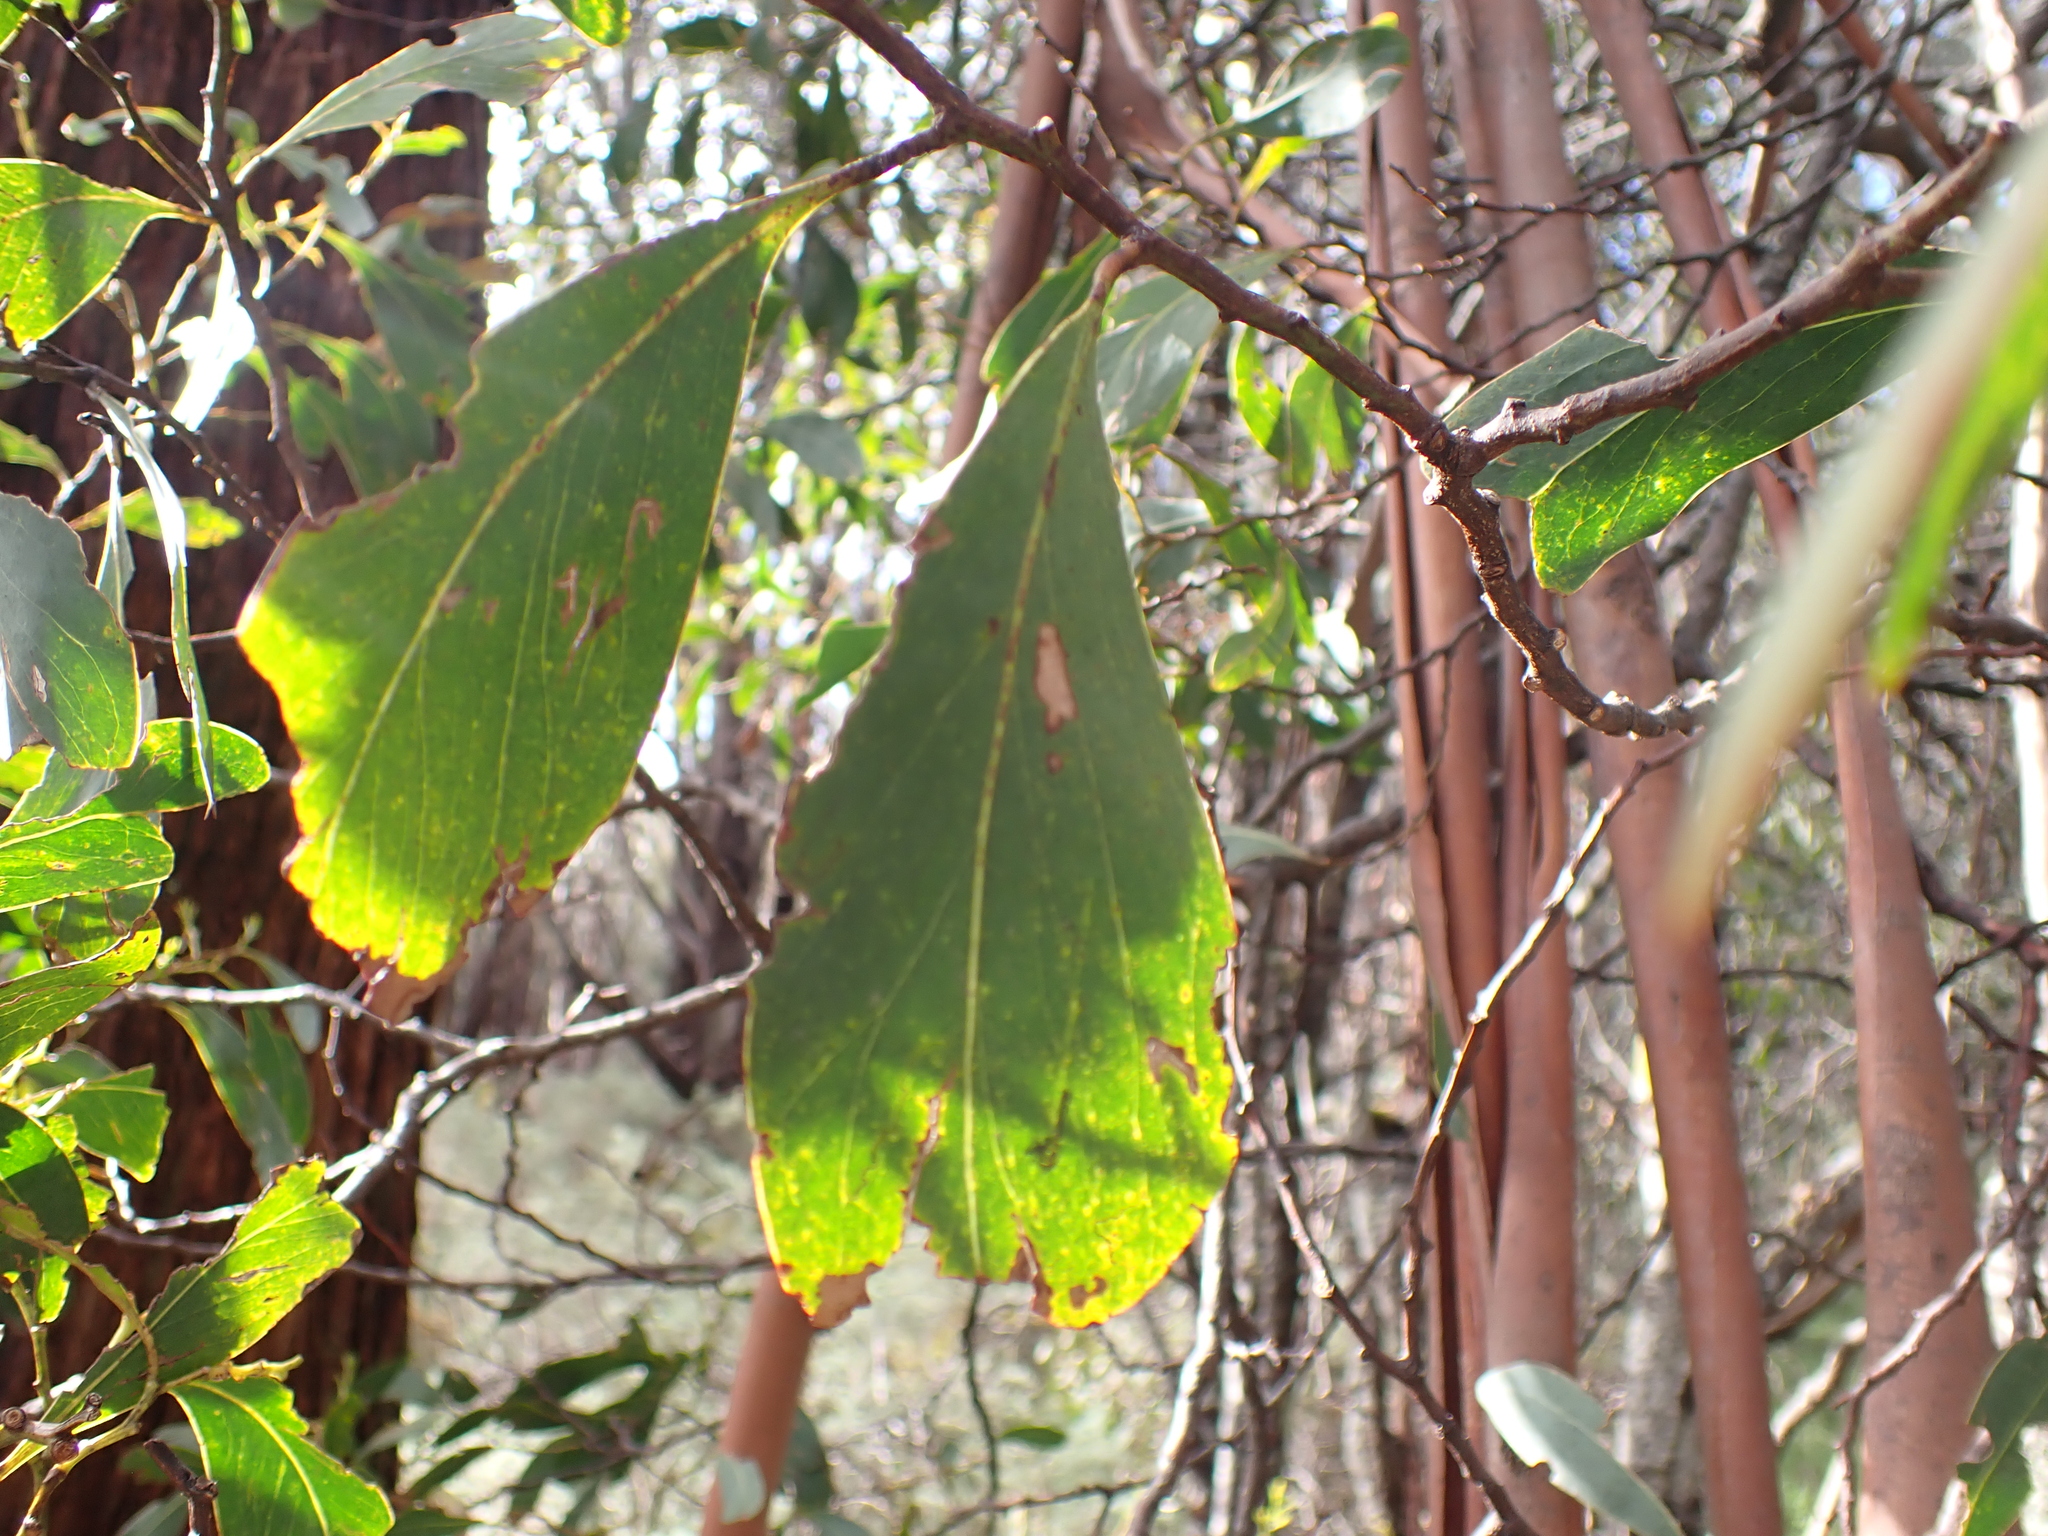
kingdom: Plantae
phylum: Tracheophyta
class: Magnoliopsida
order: Fabales
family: Fabaceae
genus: Acacia
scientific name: Acacia obliquinervia
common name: Mountain hickory wattle
